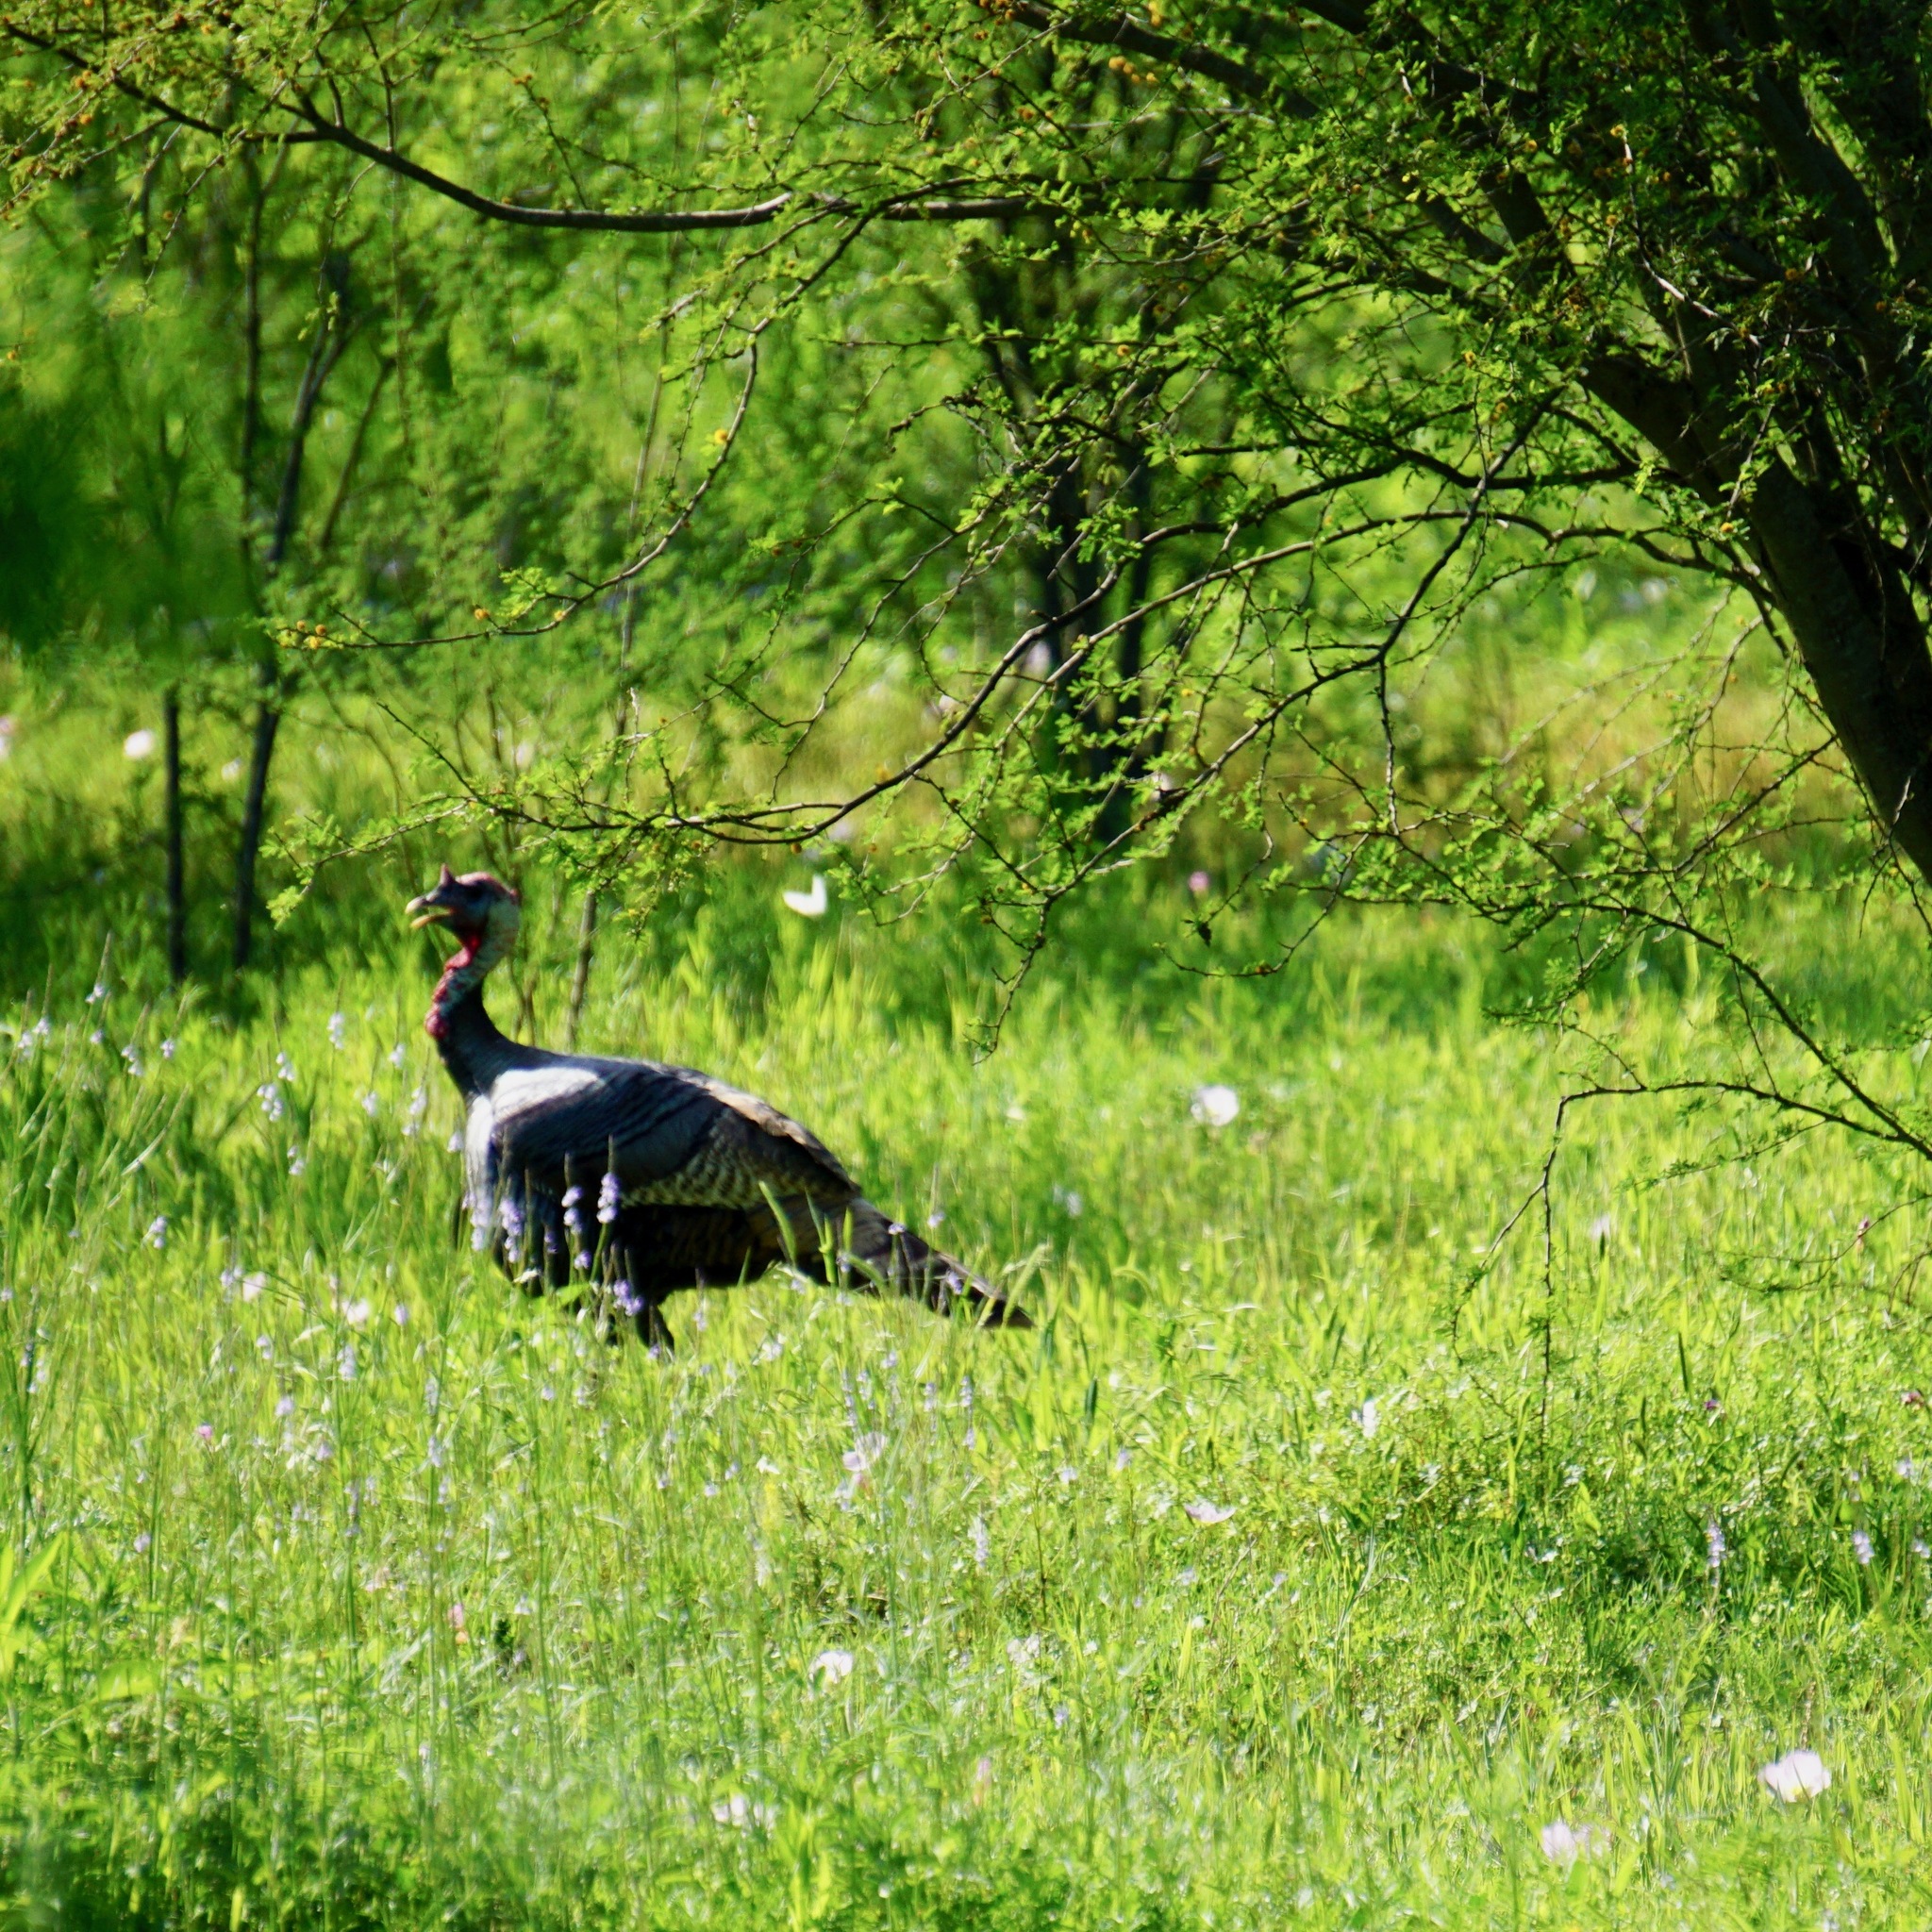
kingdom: Animalia
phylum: Chordata
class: Aves
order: Galliformes
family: Phasianidae
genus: Meleagris
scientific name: Meleagris gallopavo
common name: Wild turkey
